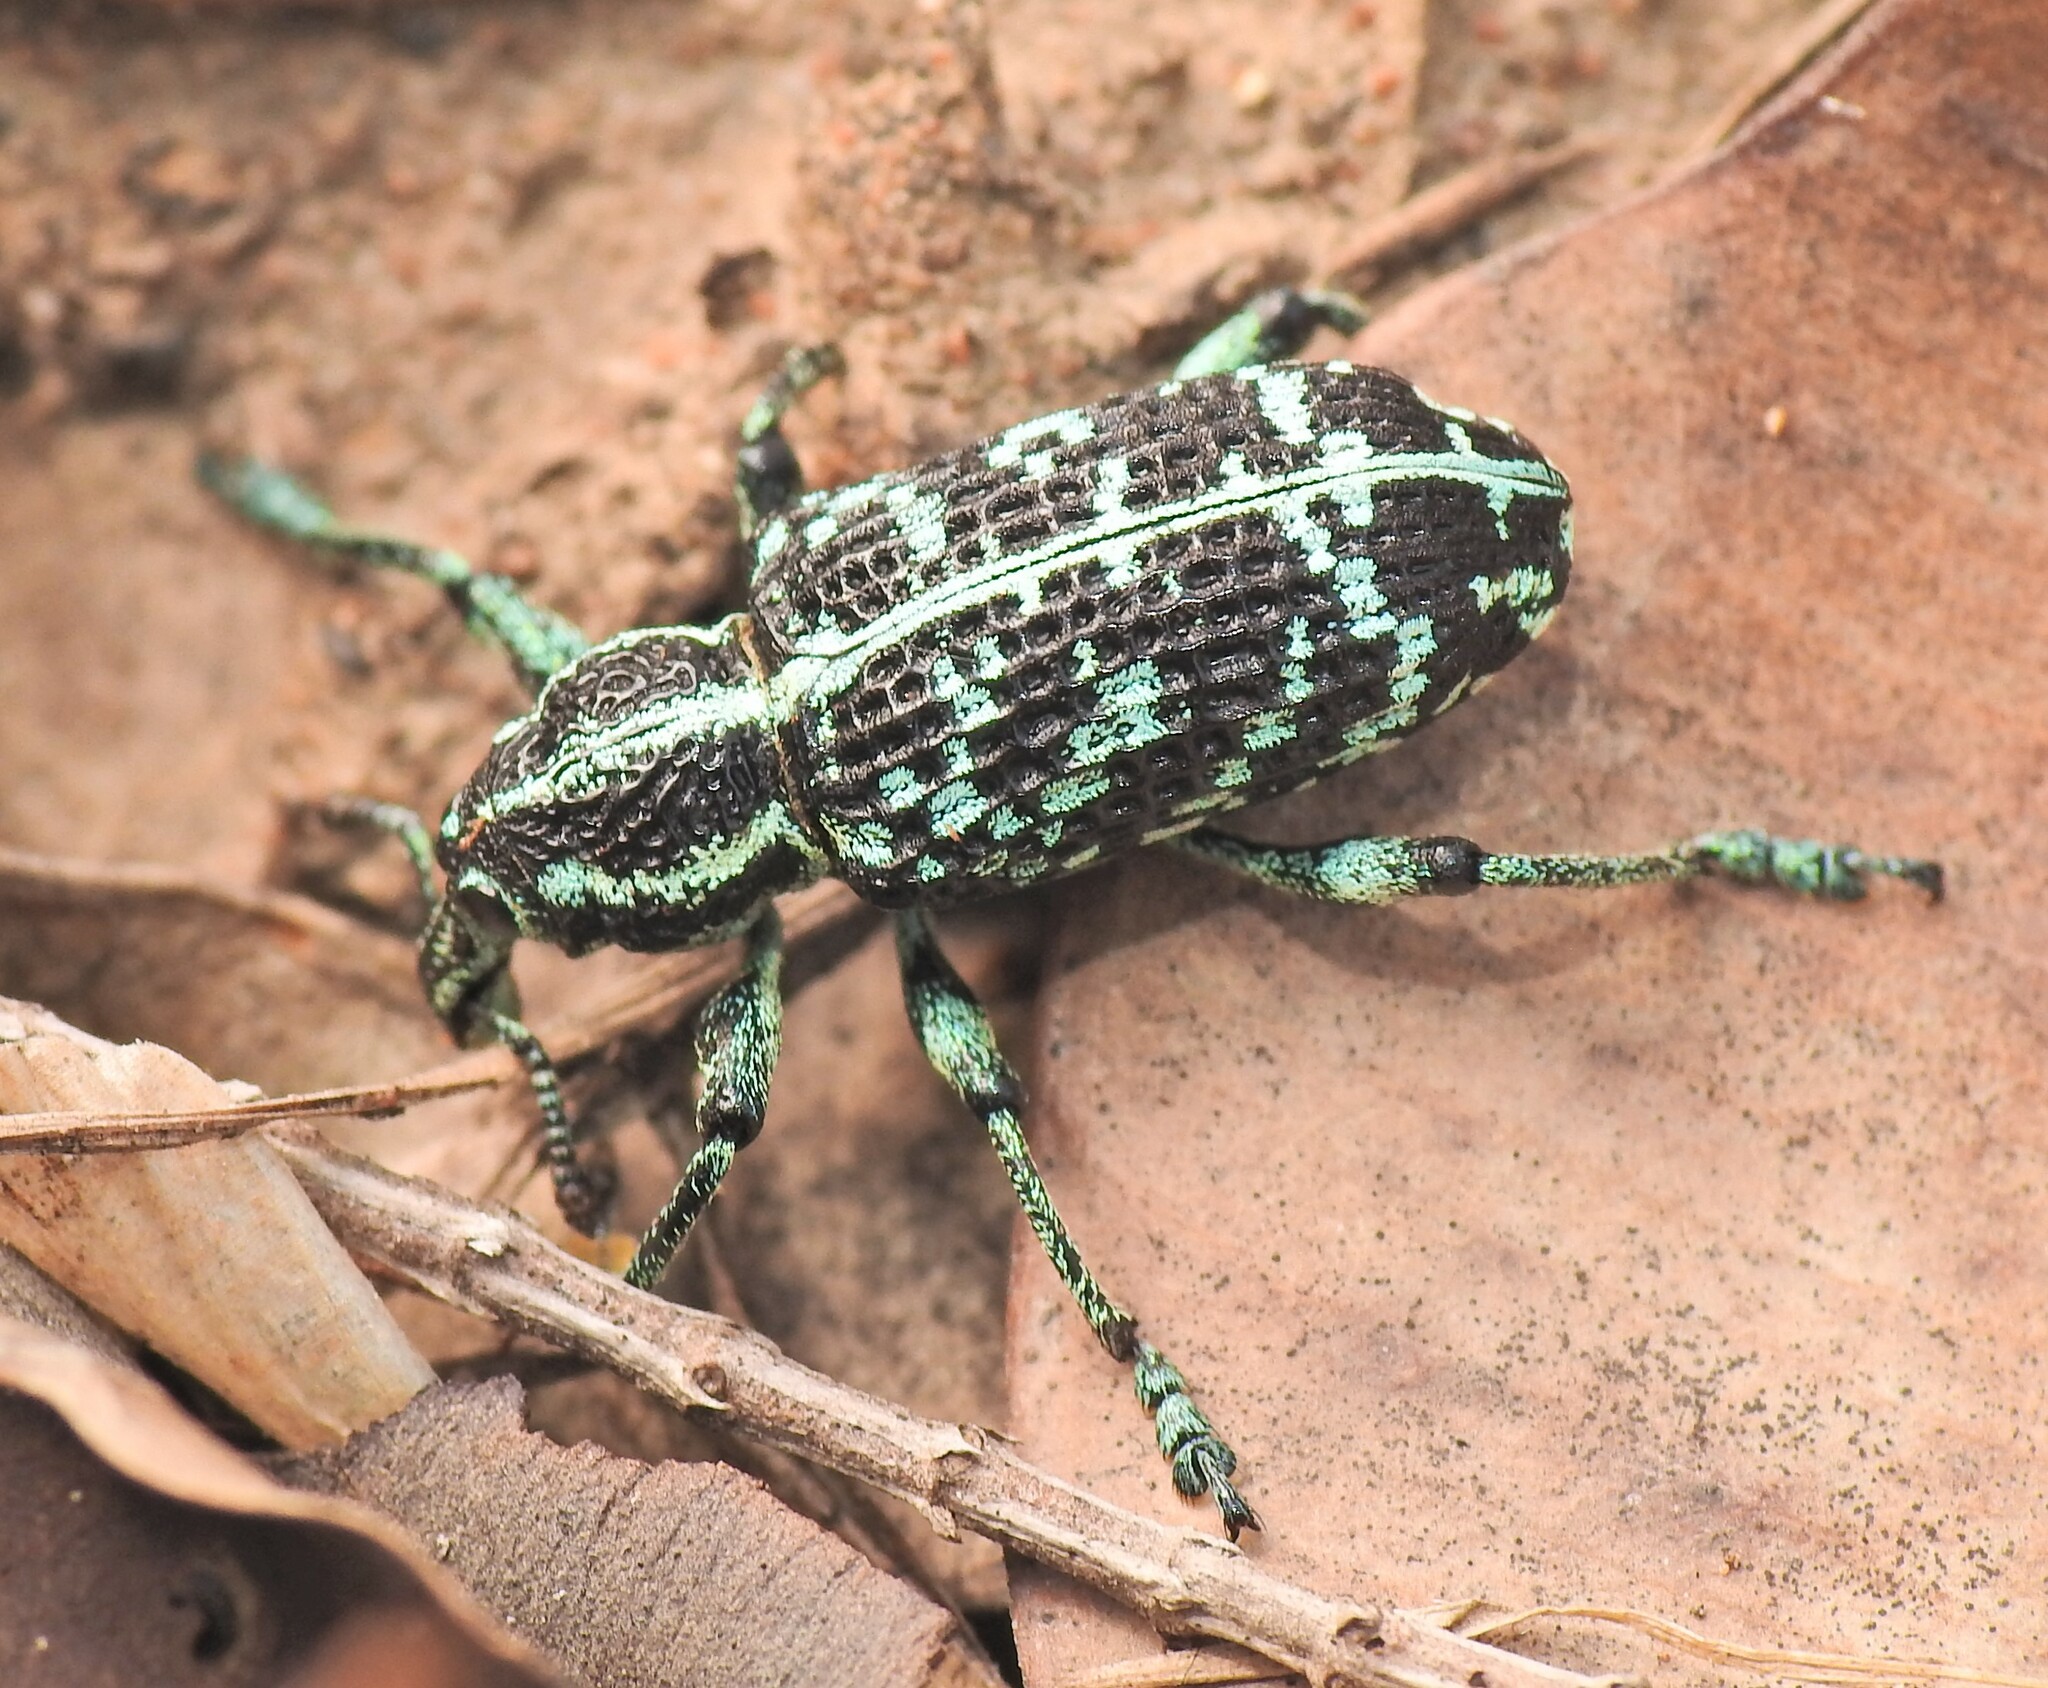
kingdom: Animalia
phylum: Arthropoda
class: Insecta
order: Coleoptera
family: Curculionidae
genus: Chrysolopus
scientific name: Chrysolopus spectabilis
